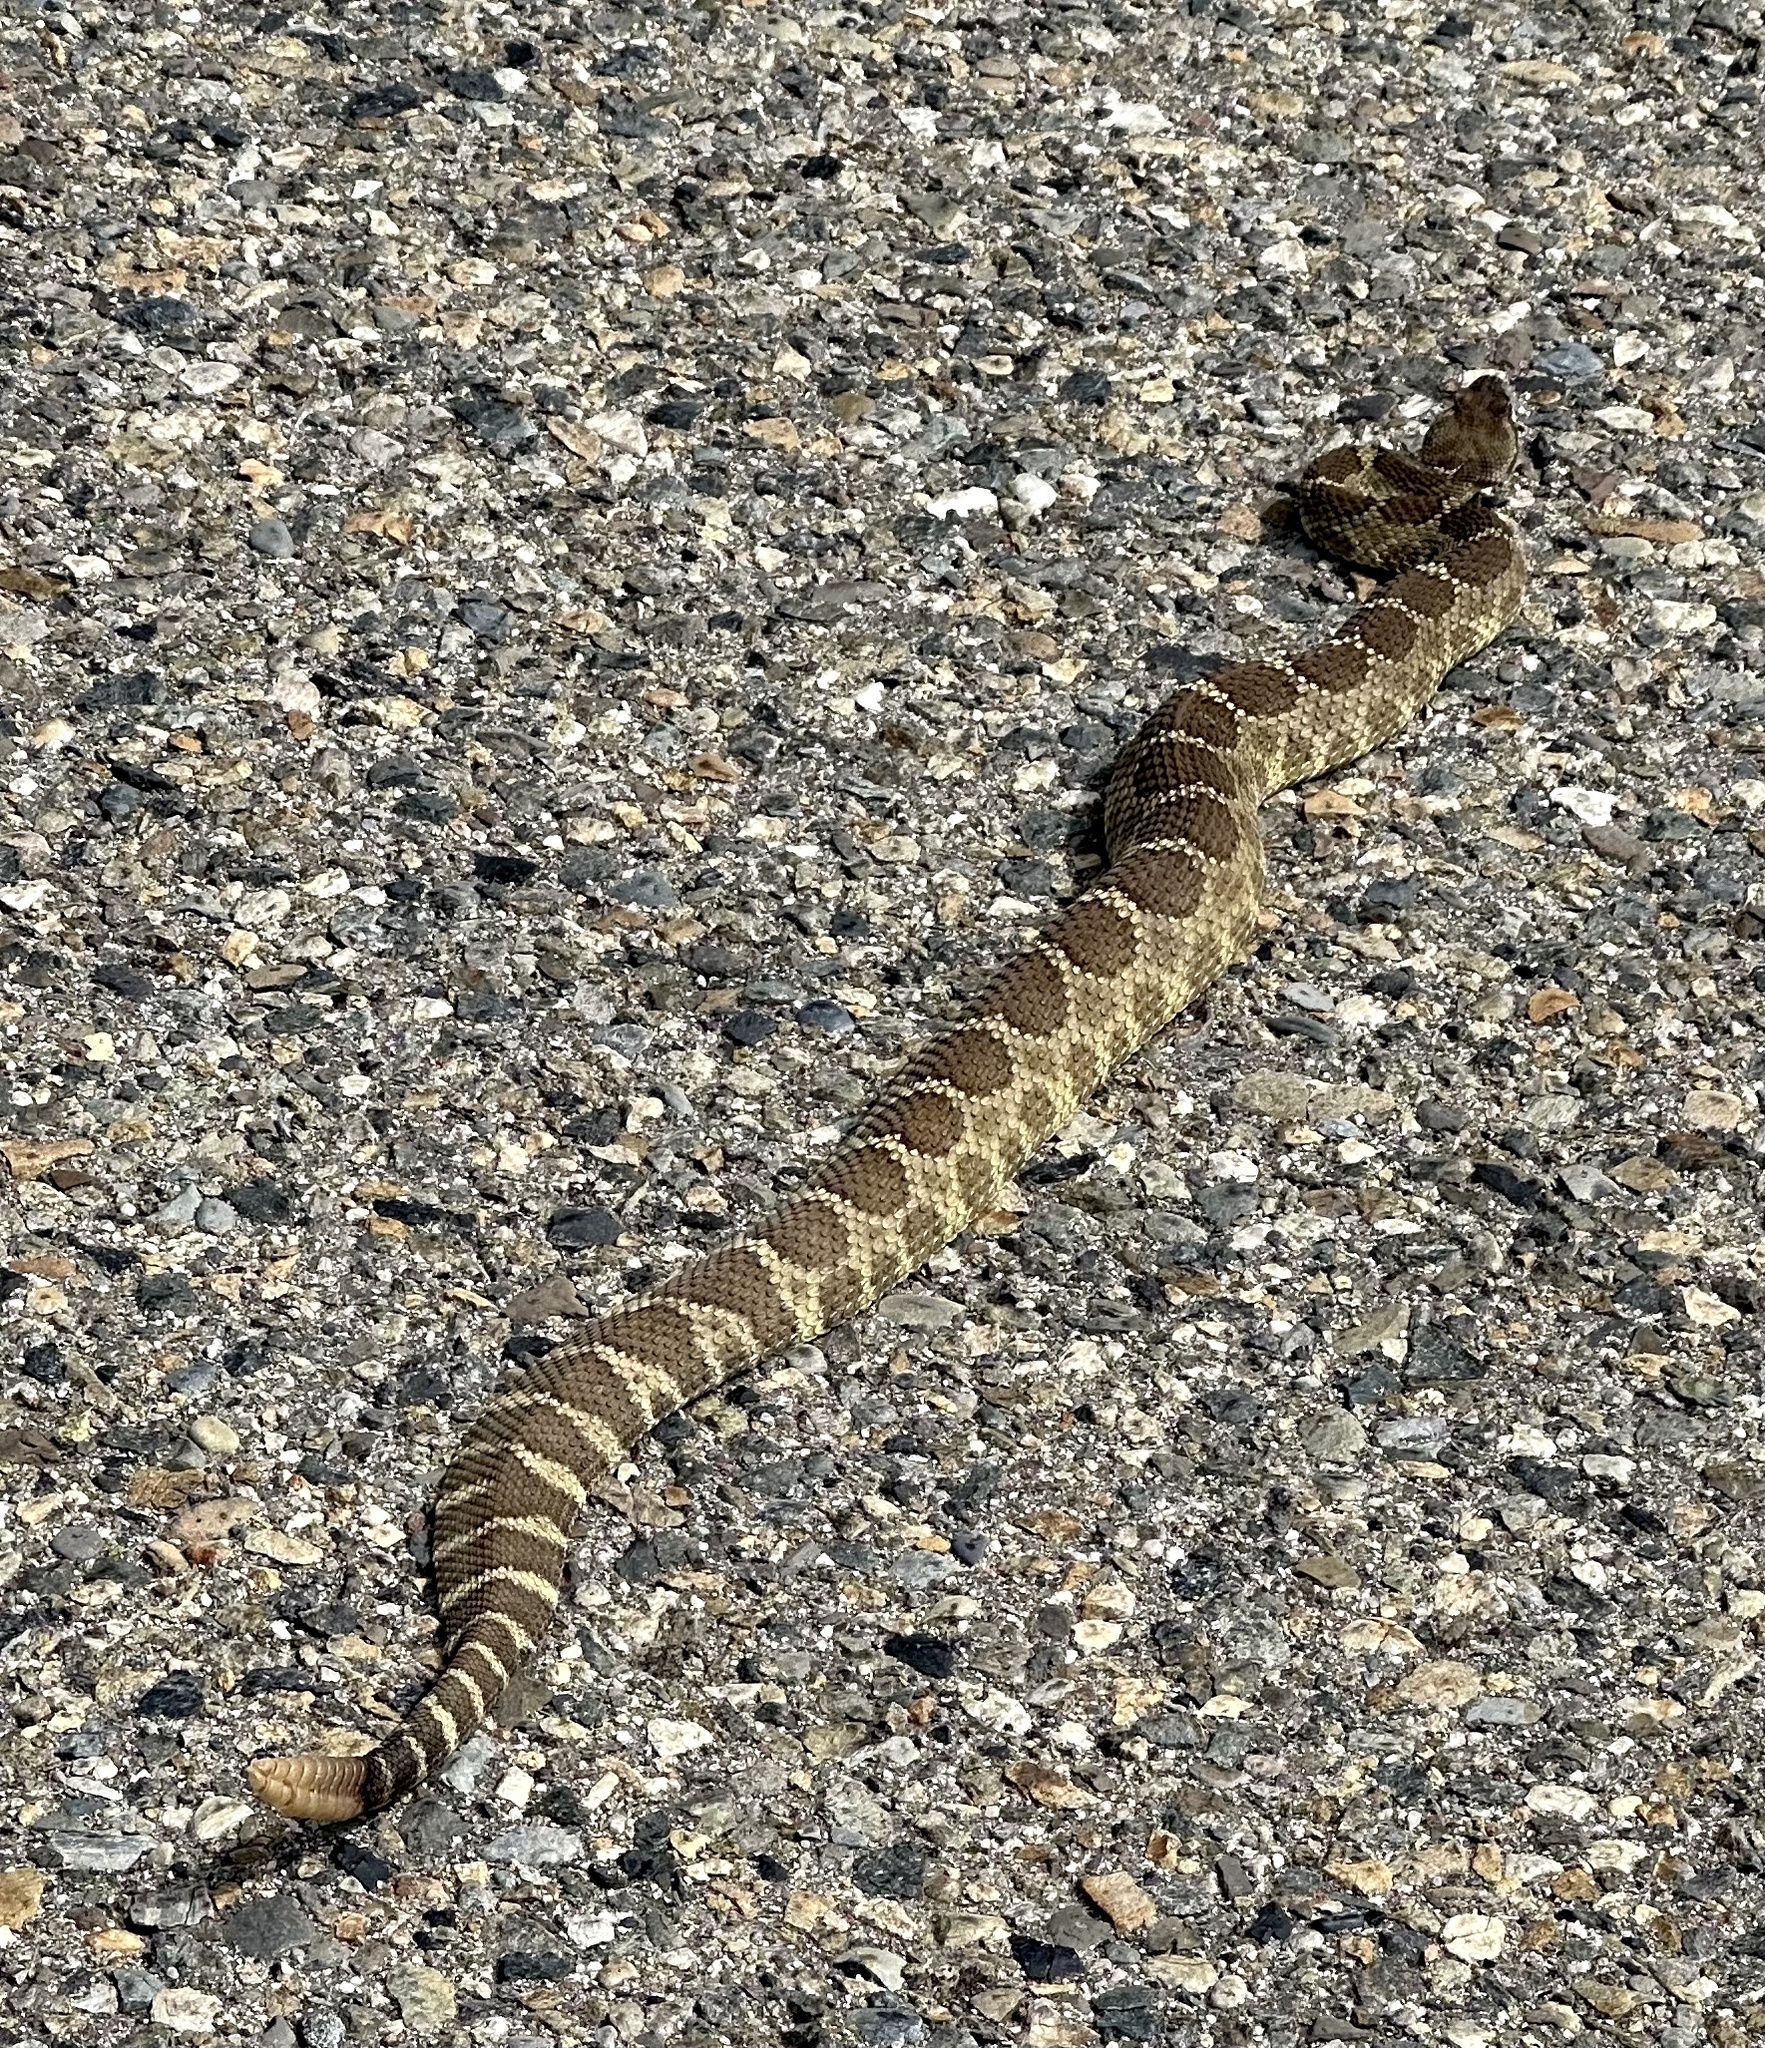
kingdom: Animalia
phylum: Chordata
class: Squamata
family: Viperidae
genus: Crotalus
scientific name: Crotalus oreganus
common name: Abyssus
